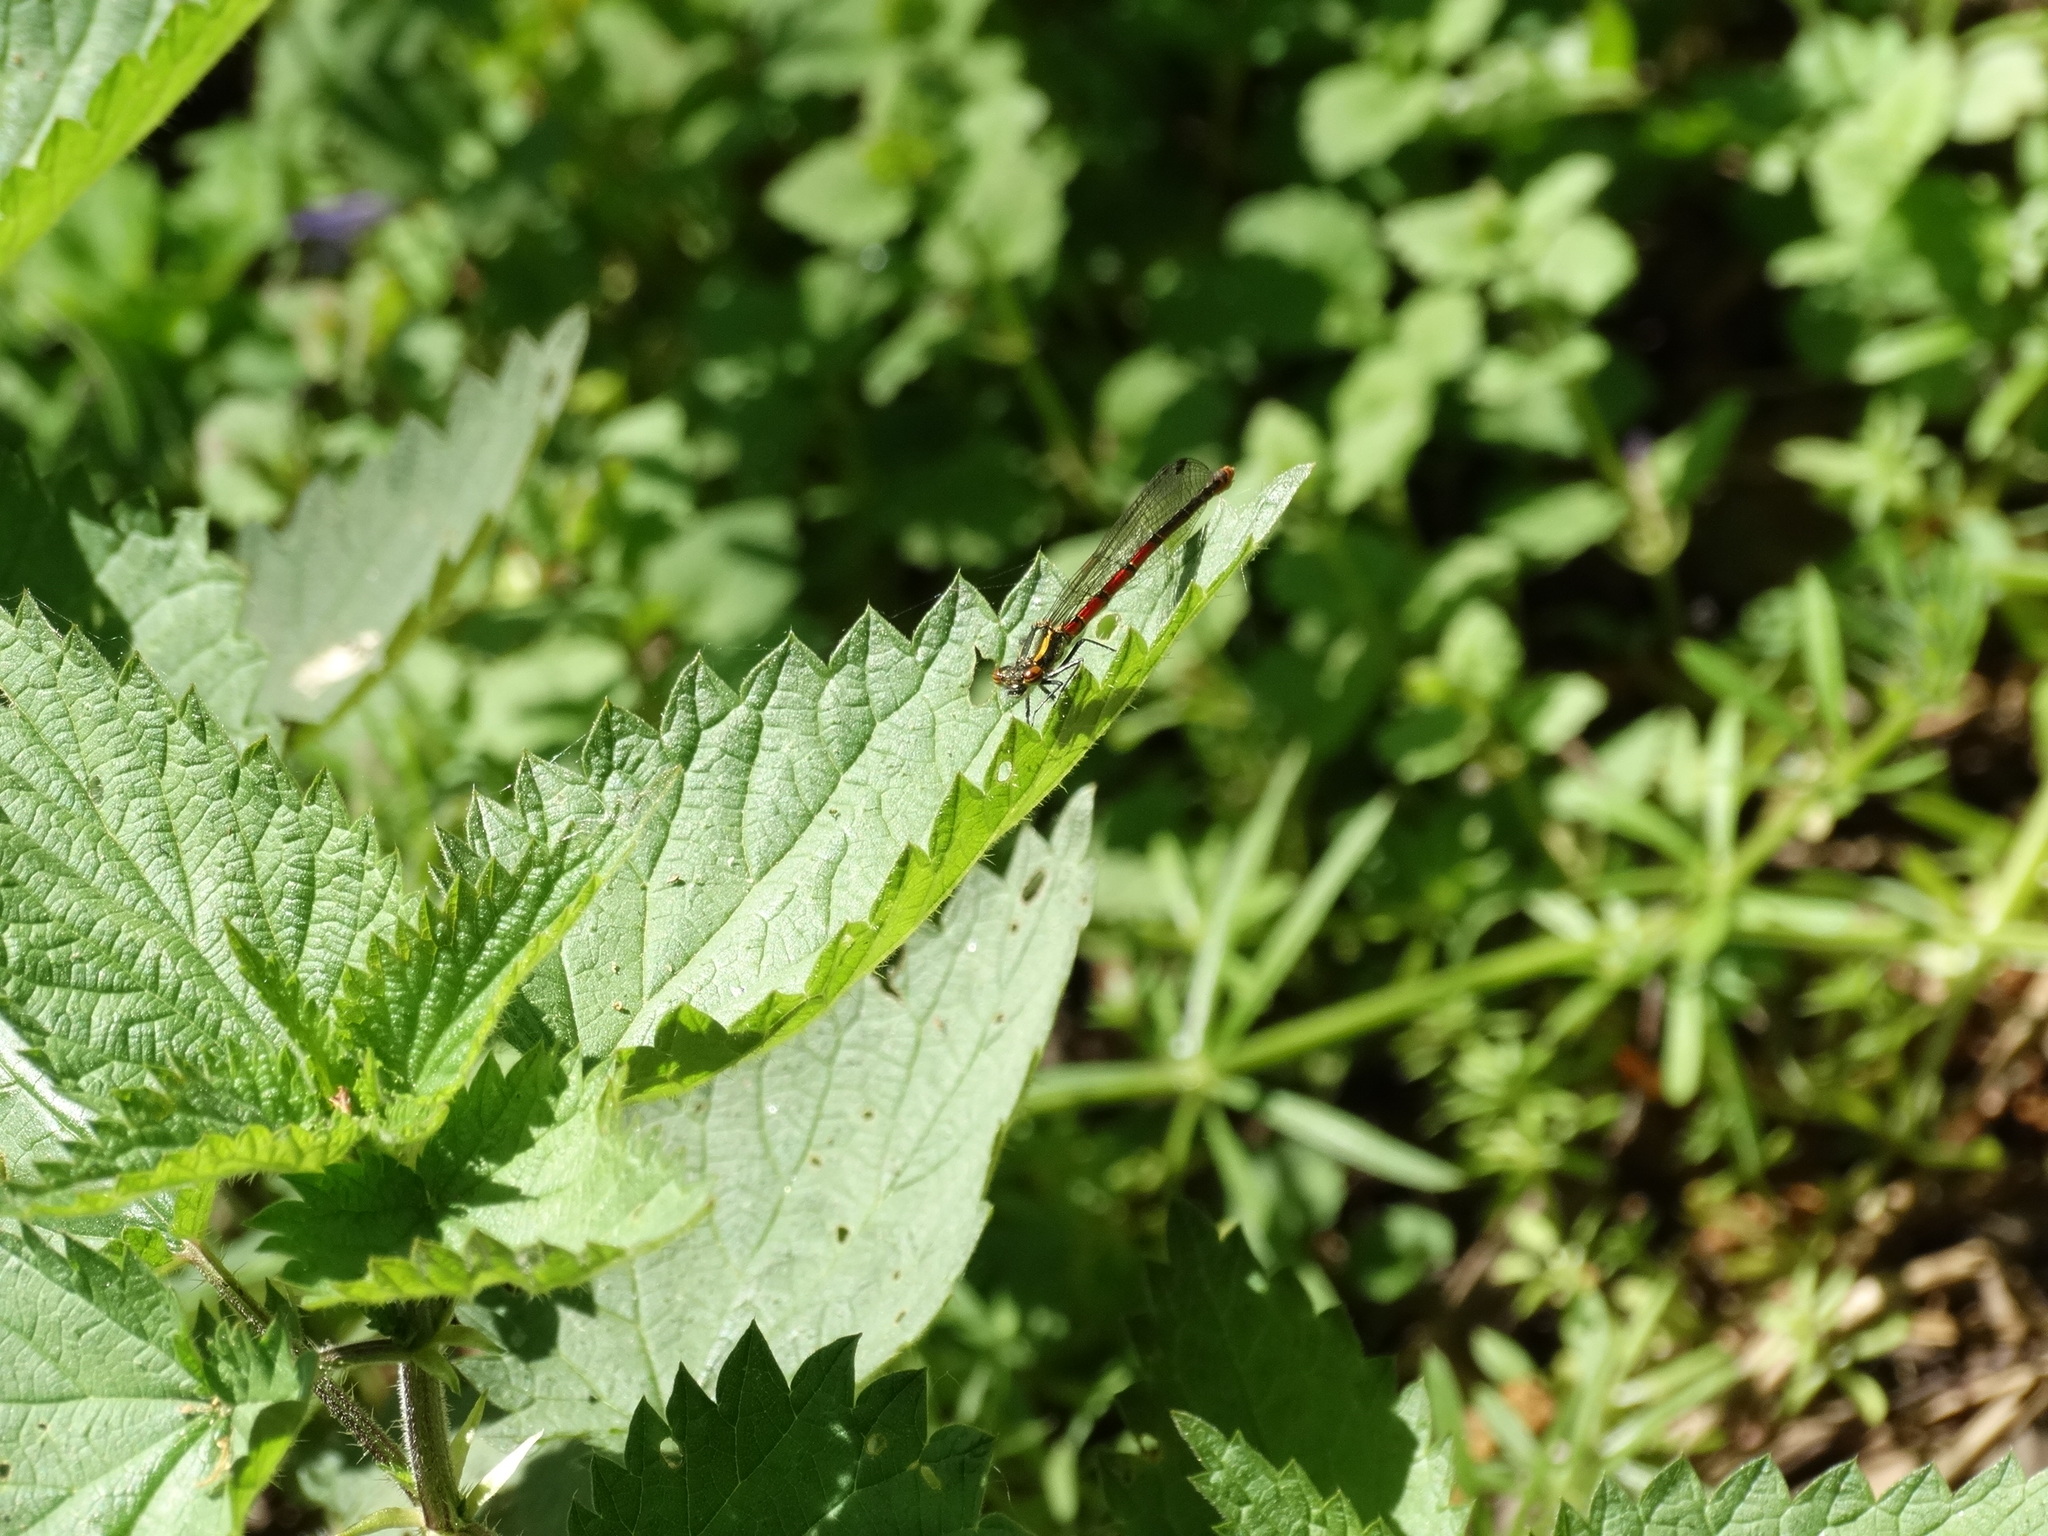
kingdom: Animalia
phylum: Arthropoda
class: Insecta
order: Odonata
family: Coenagrionidae
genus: Pyrrhosoma
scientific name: Pyrrhosoma nymphula
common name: Large red damsel
